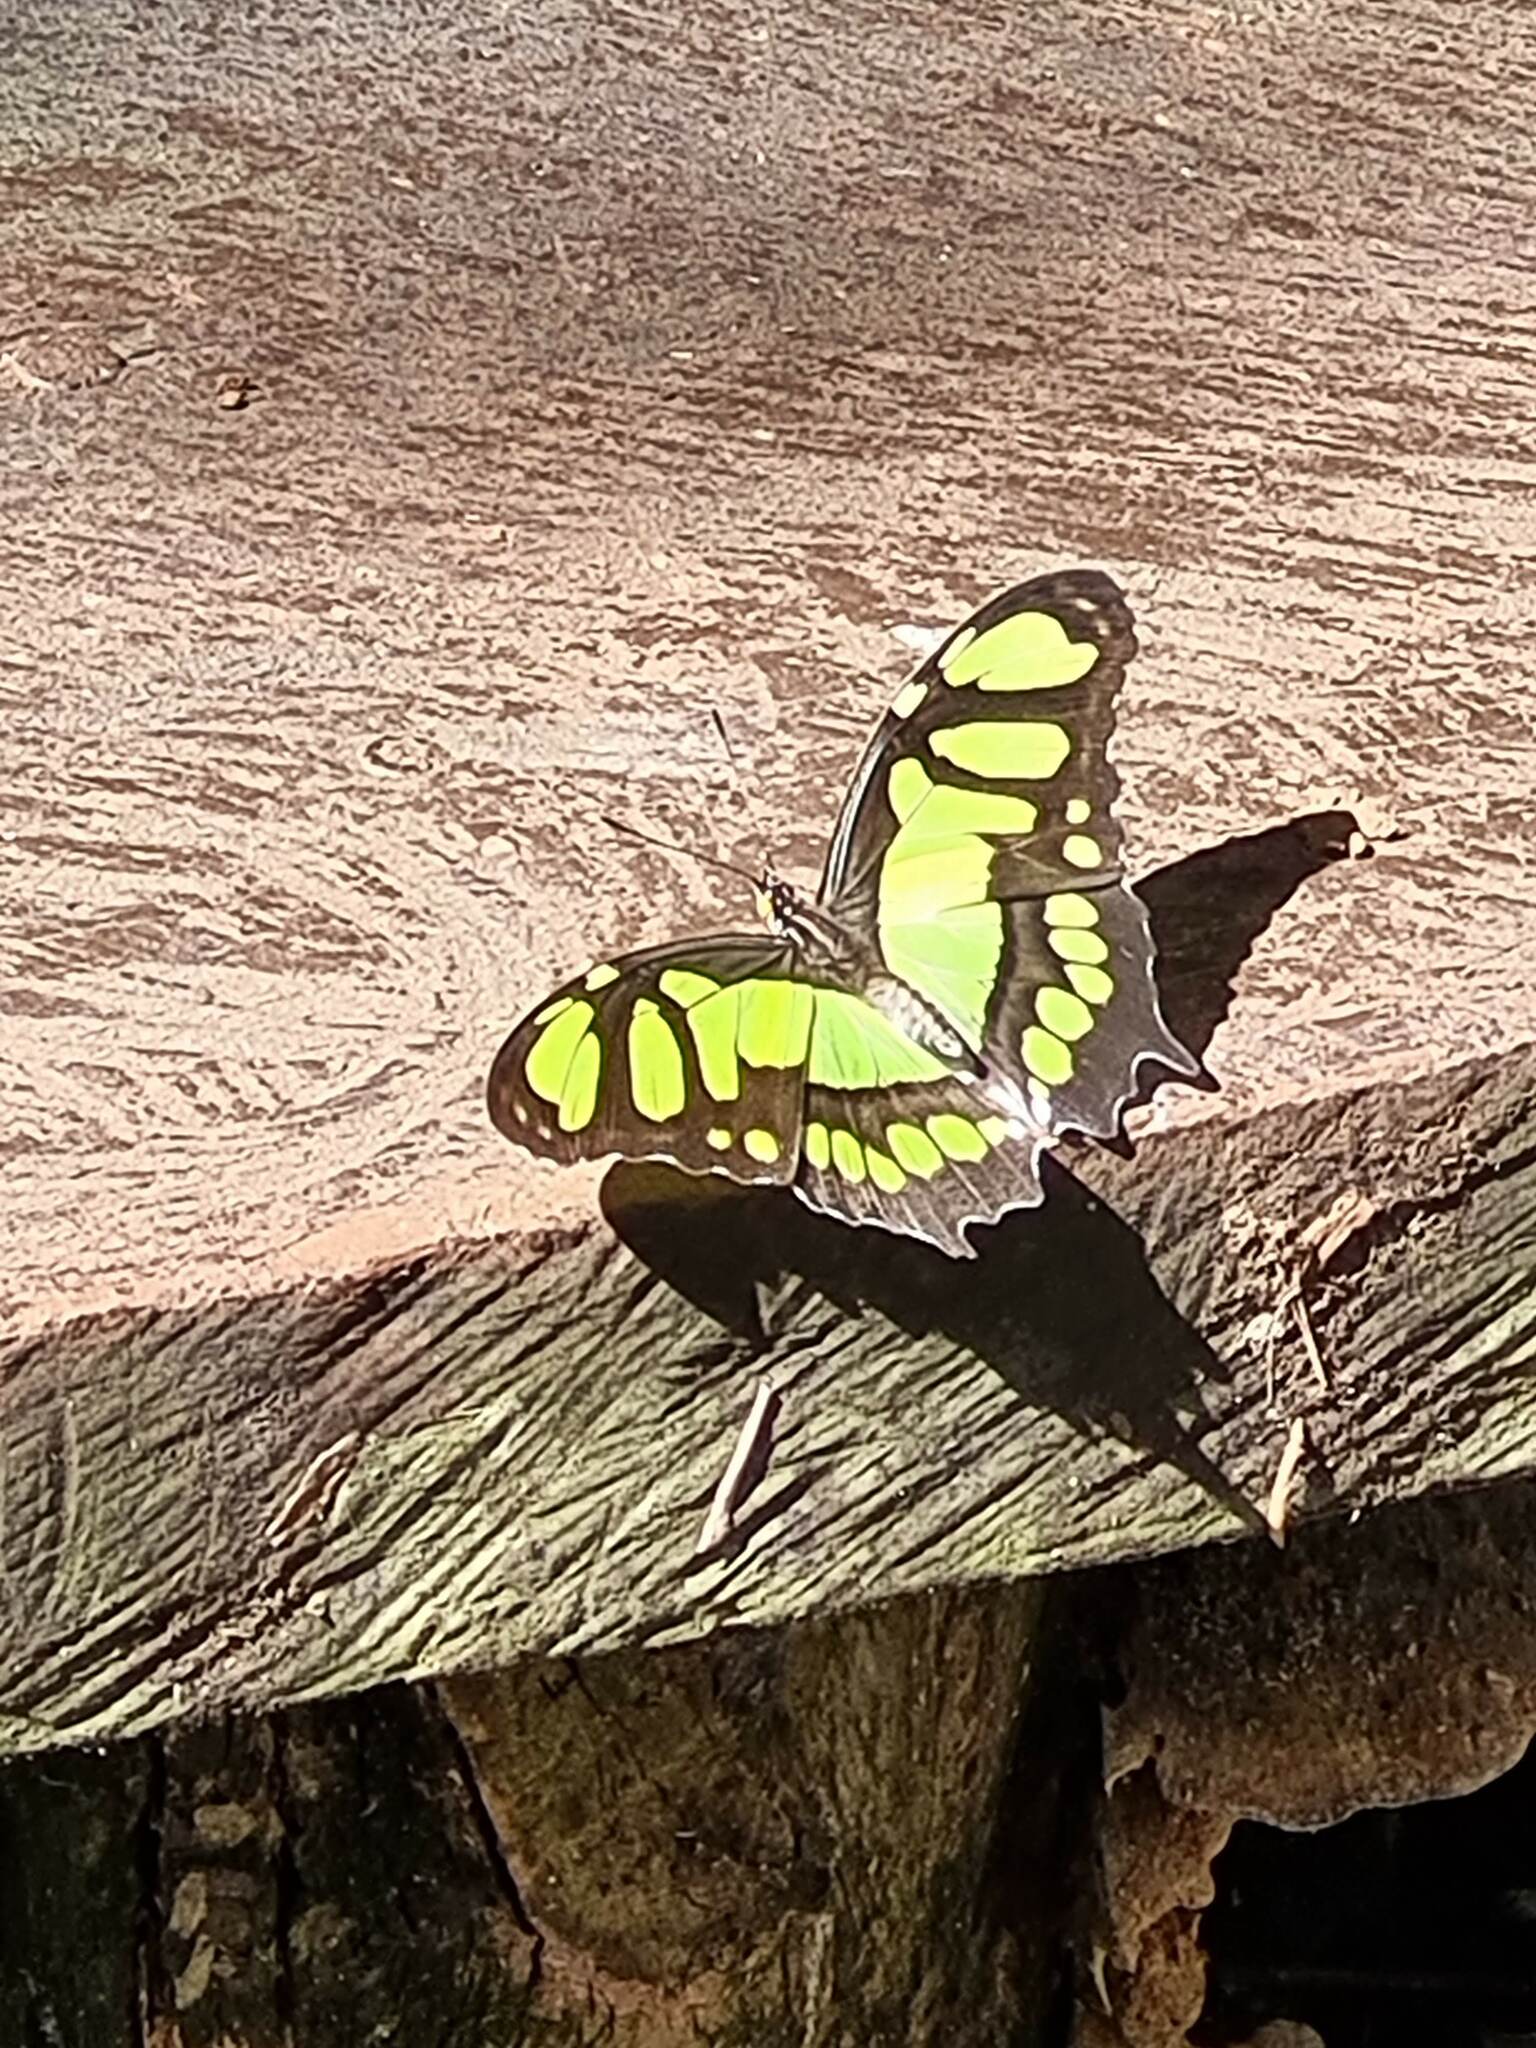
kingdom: Animalia
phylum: Arthropoda
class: Insecta
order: Lepidoptera
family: Nymphalidae
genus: Siproeta
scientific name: Siproeta stelenes
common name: Malachite
